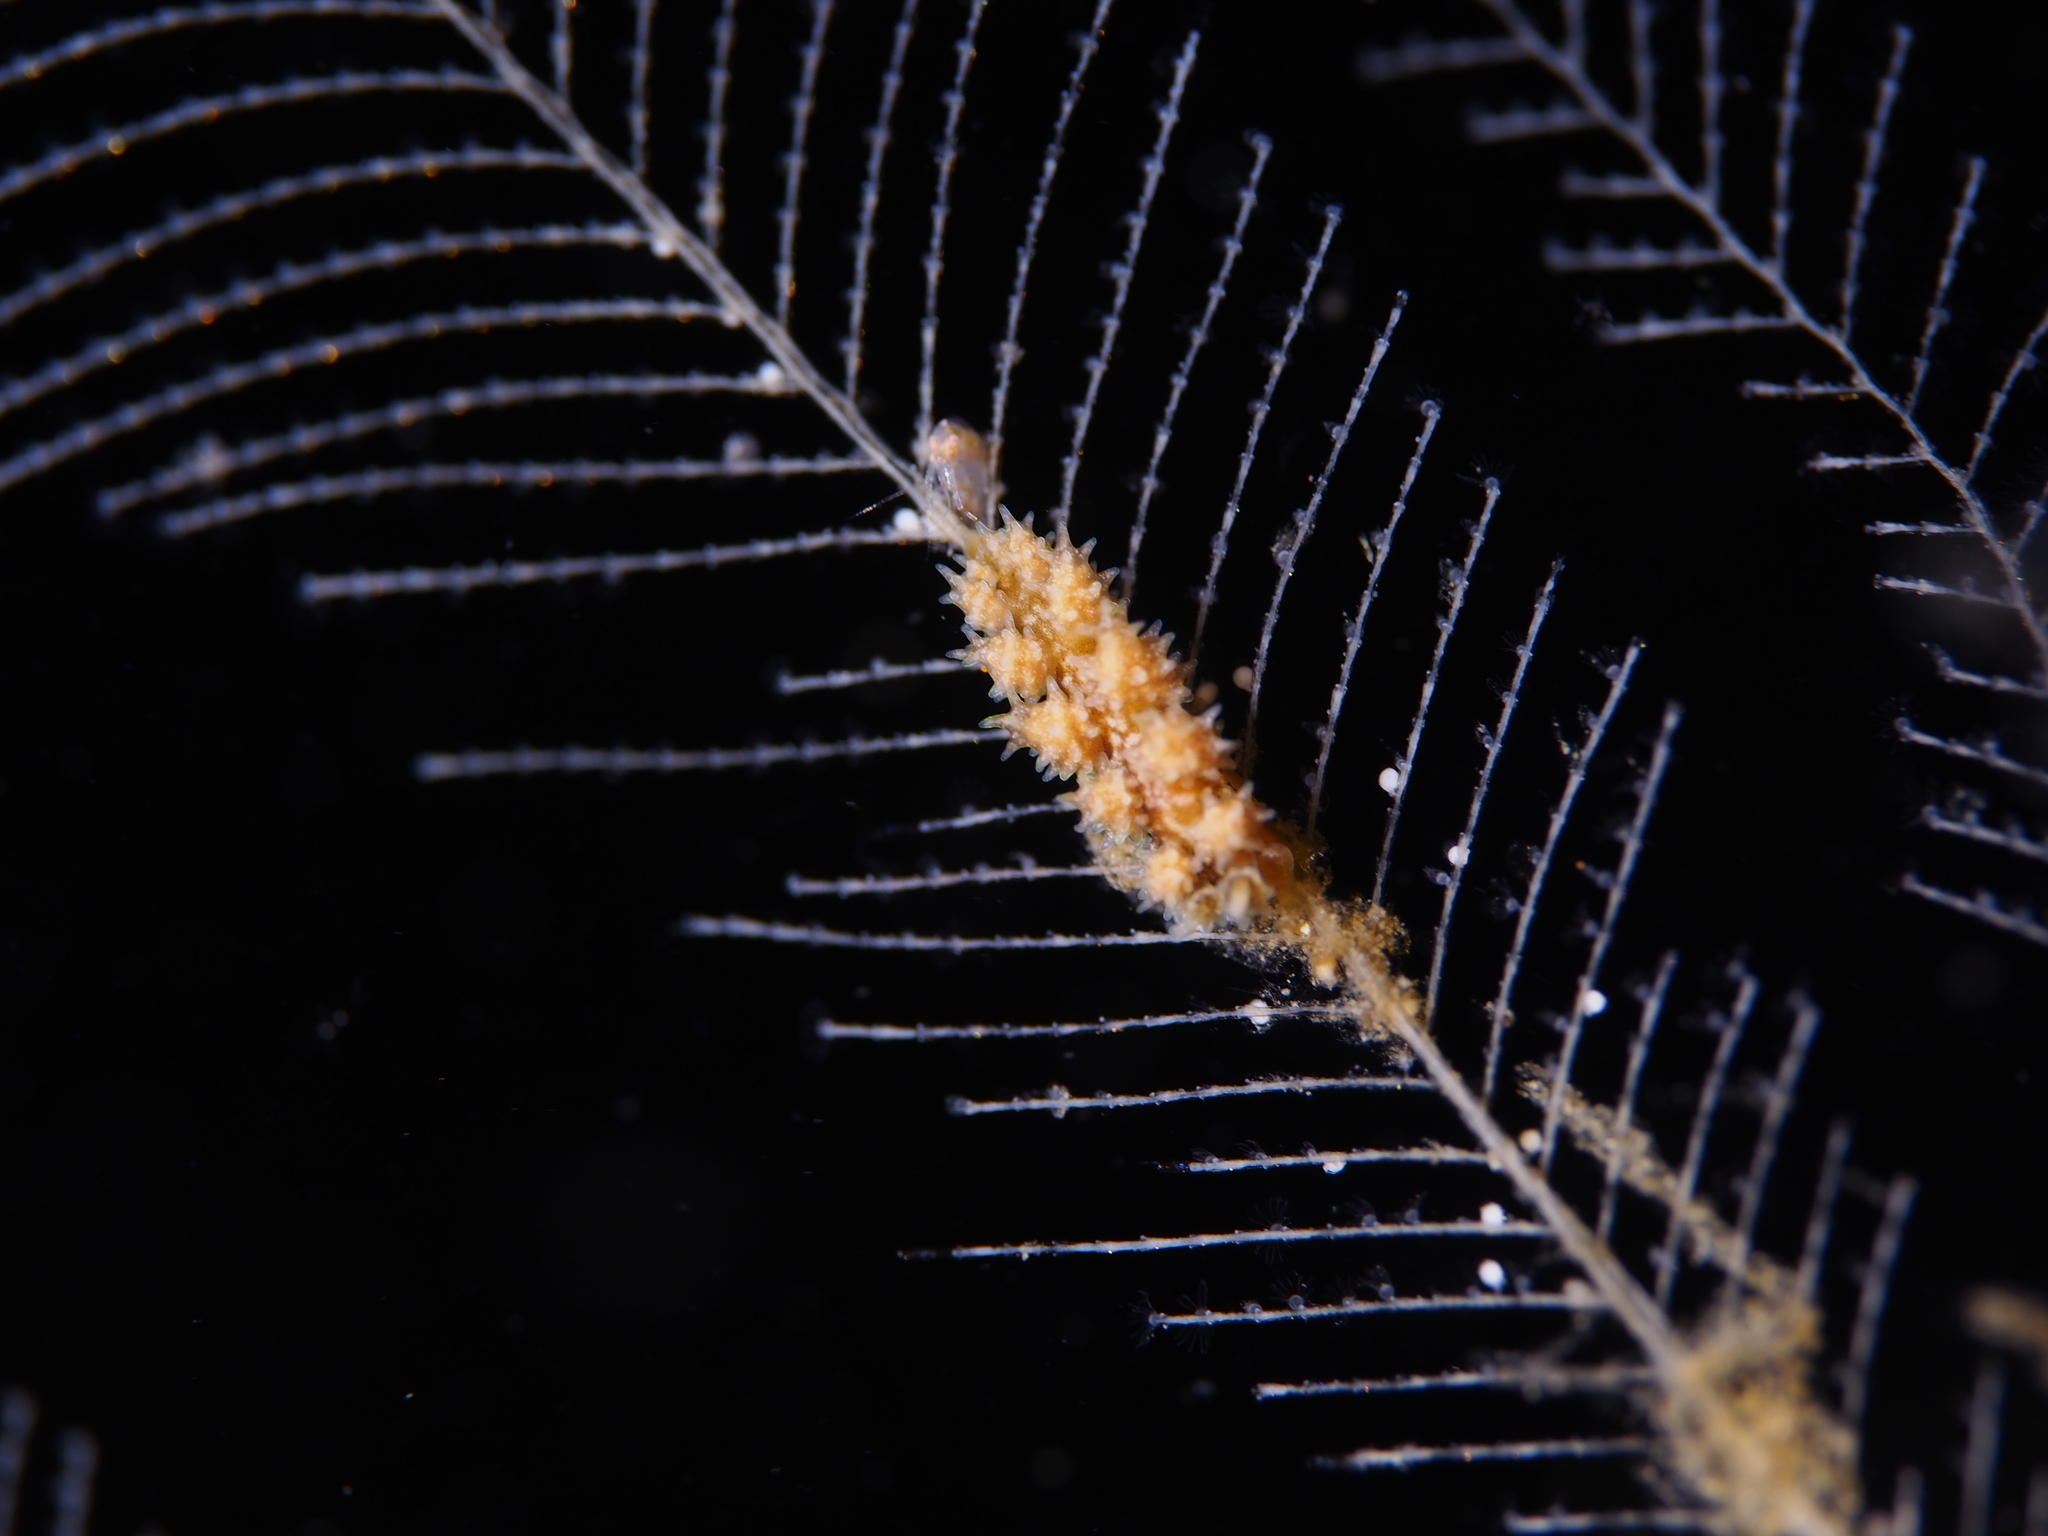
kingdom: Animalia
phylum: Mollusca
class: Gastropoda
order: Nudibranchia
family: Dotidae
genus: Doto
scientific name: Doto hystrix
